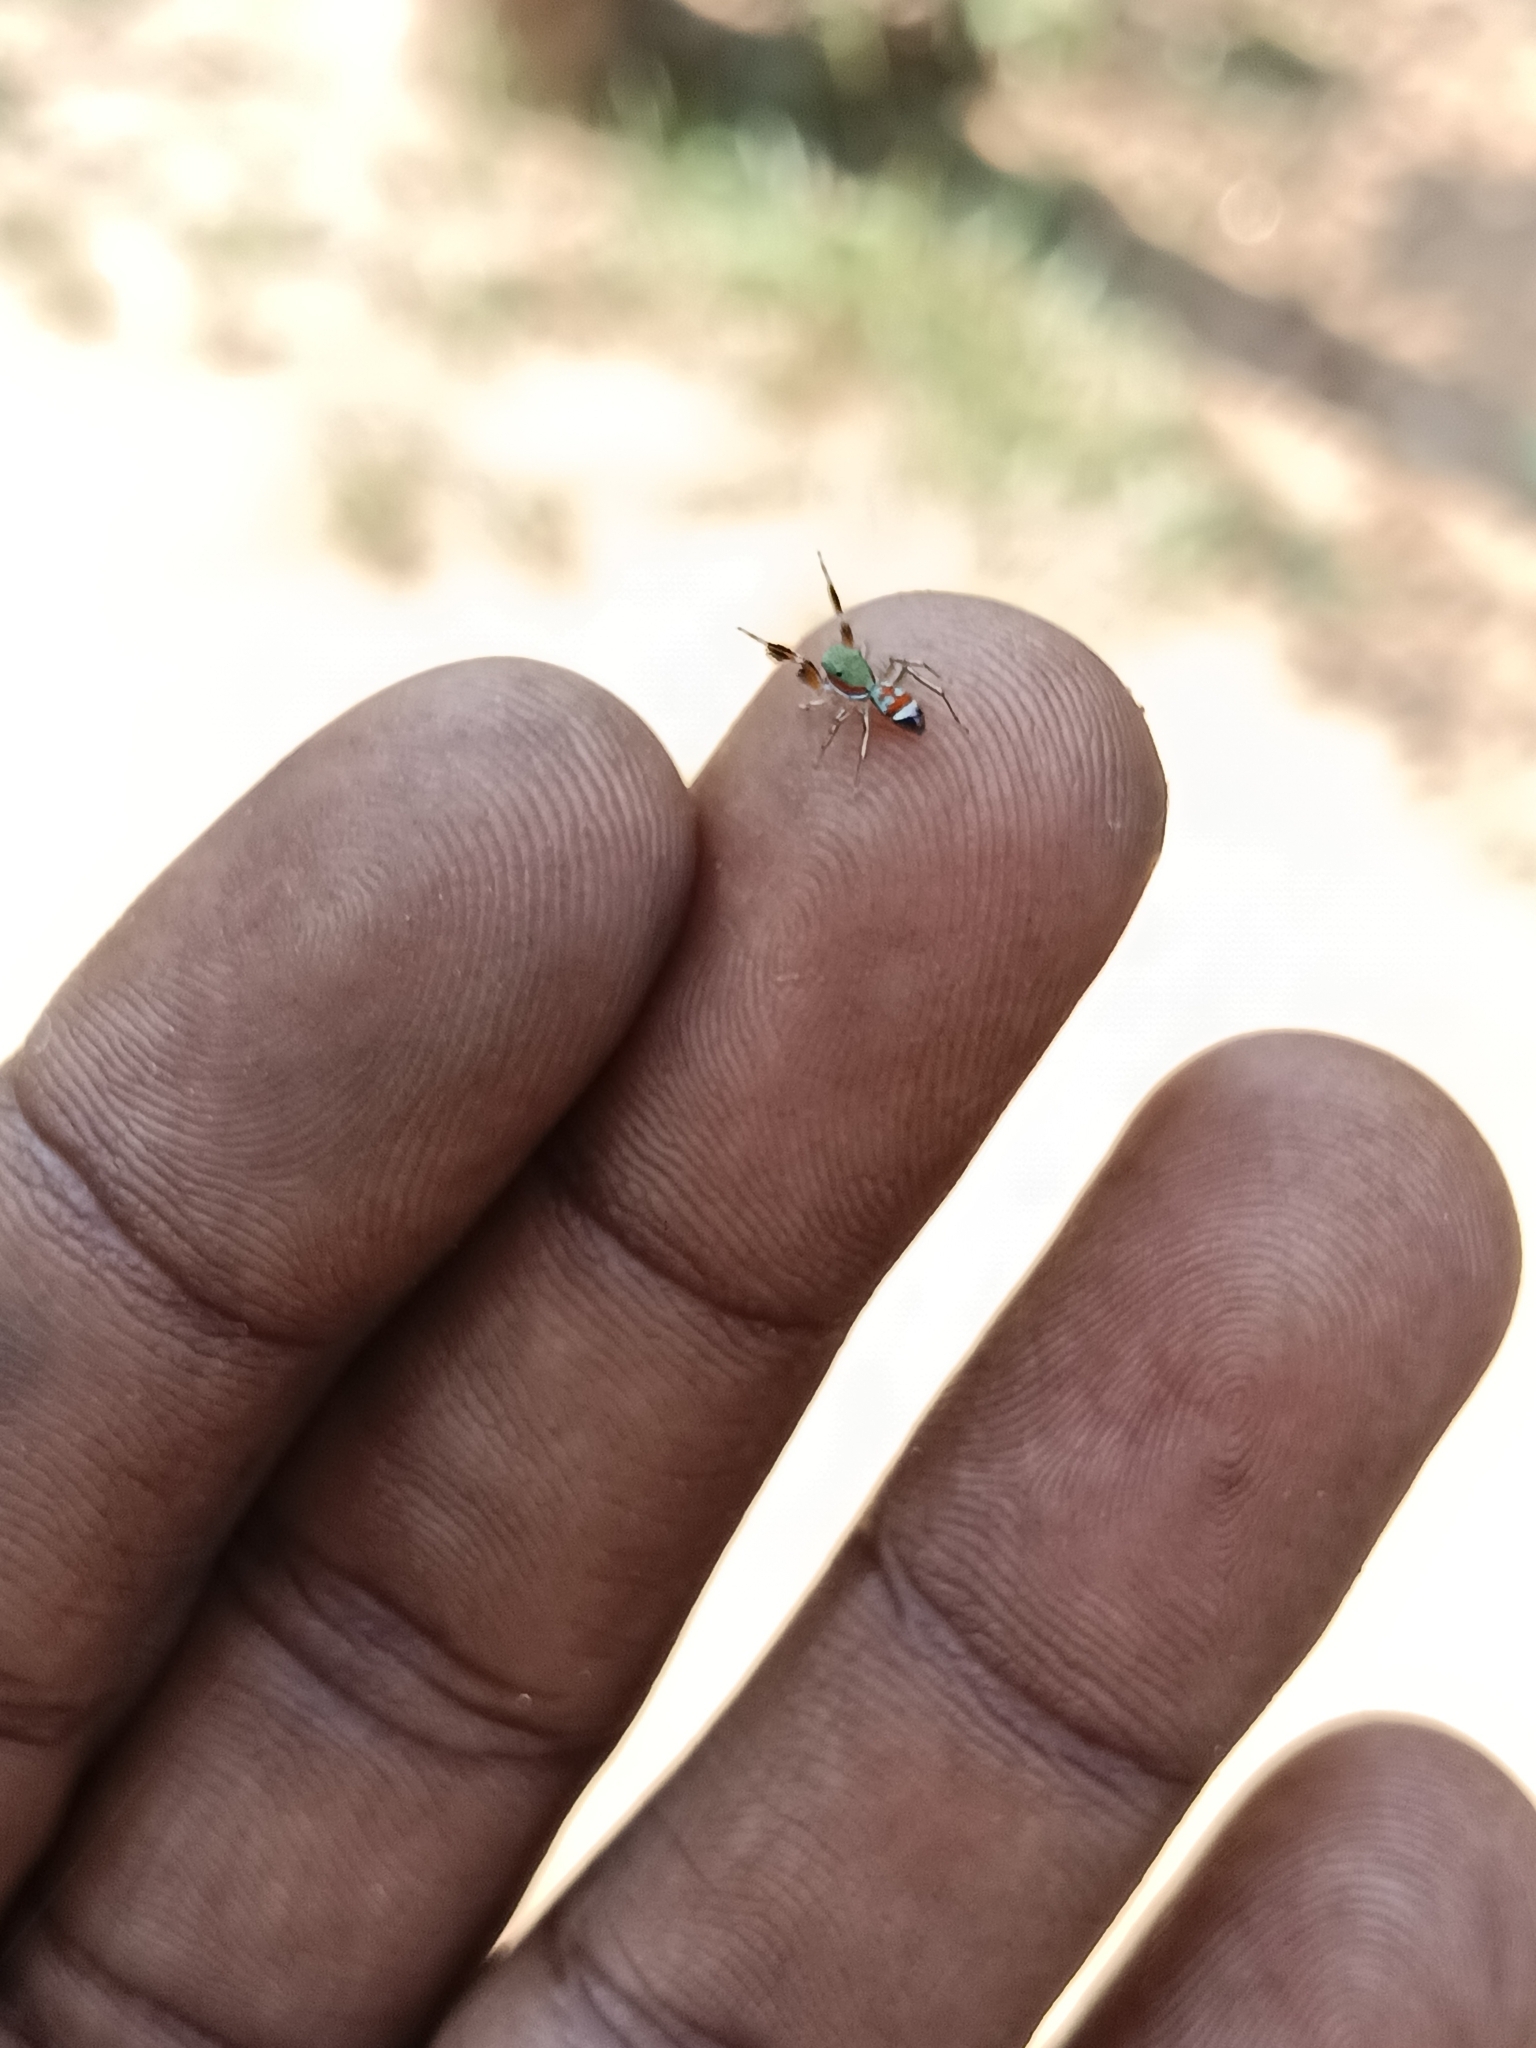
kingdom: Animalia
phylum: Arthropoda
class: Arachnida
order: Araneae
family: Salticidae
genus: Siler
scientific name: Siler semiglaucus
